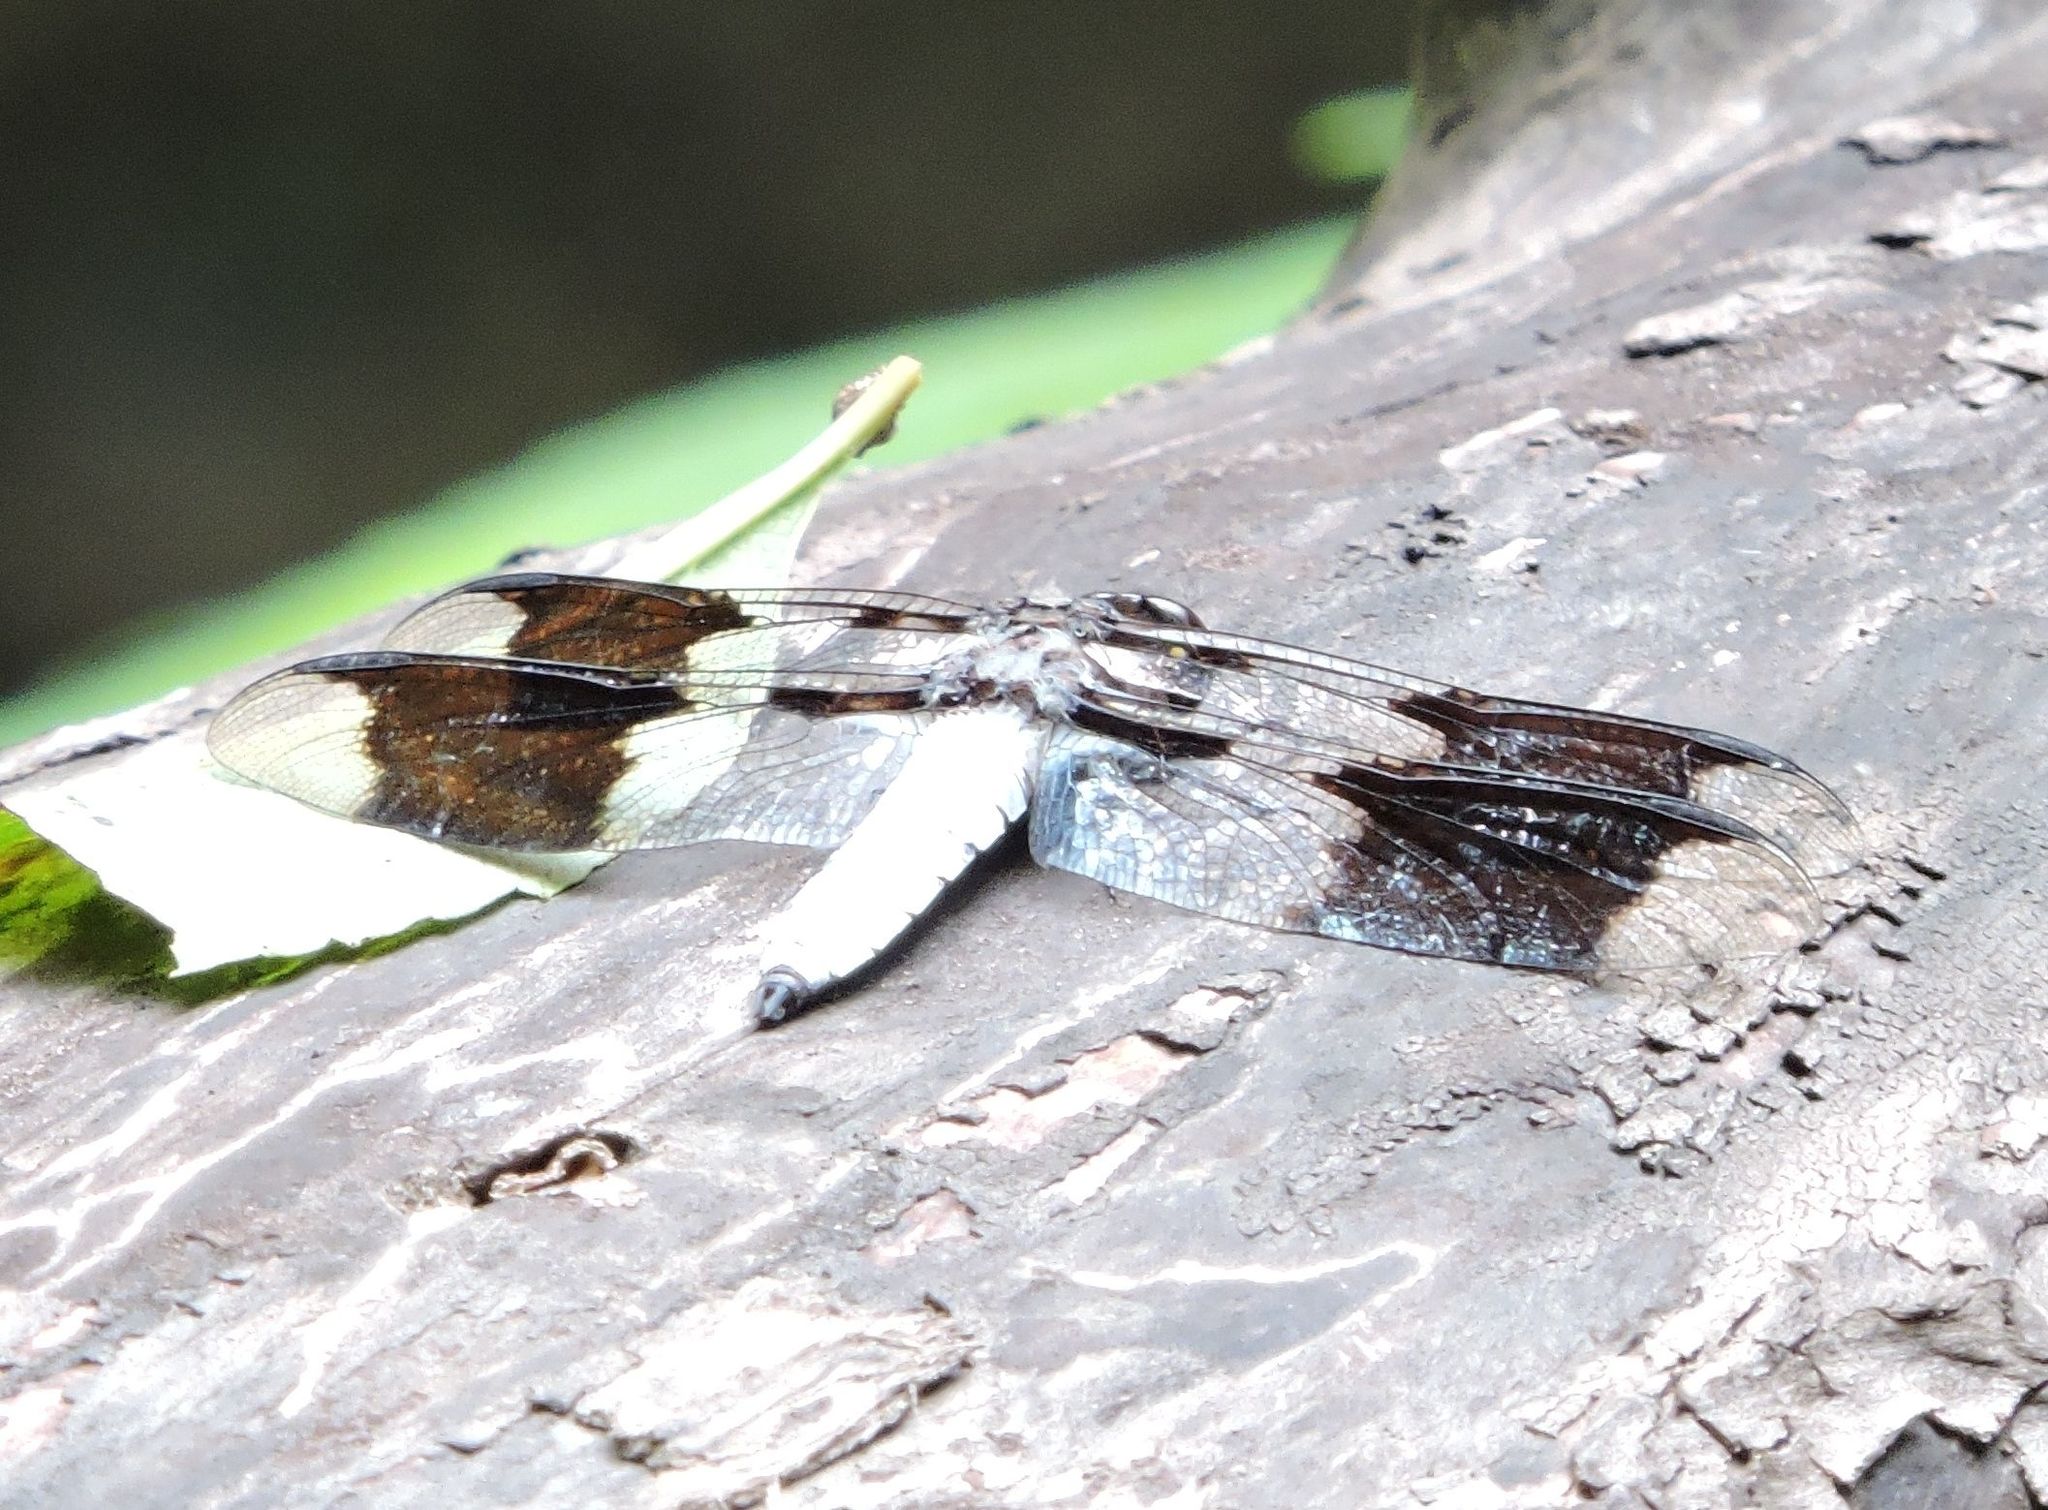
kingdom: Animalia
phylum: Arthropoda
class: Insecta
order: Odonata
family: Libellulidae
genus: Plathemis
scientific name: Plathemis lydia
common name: Common whitetail
